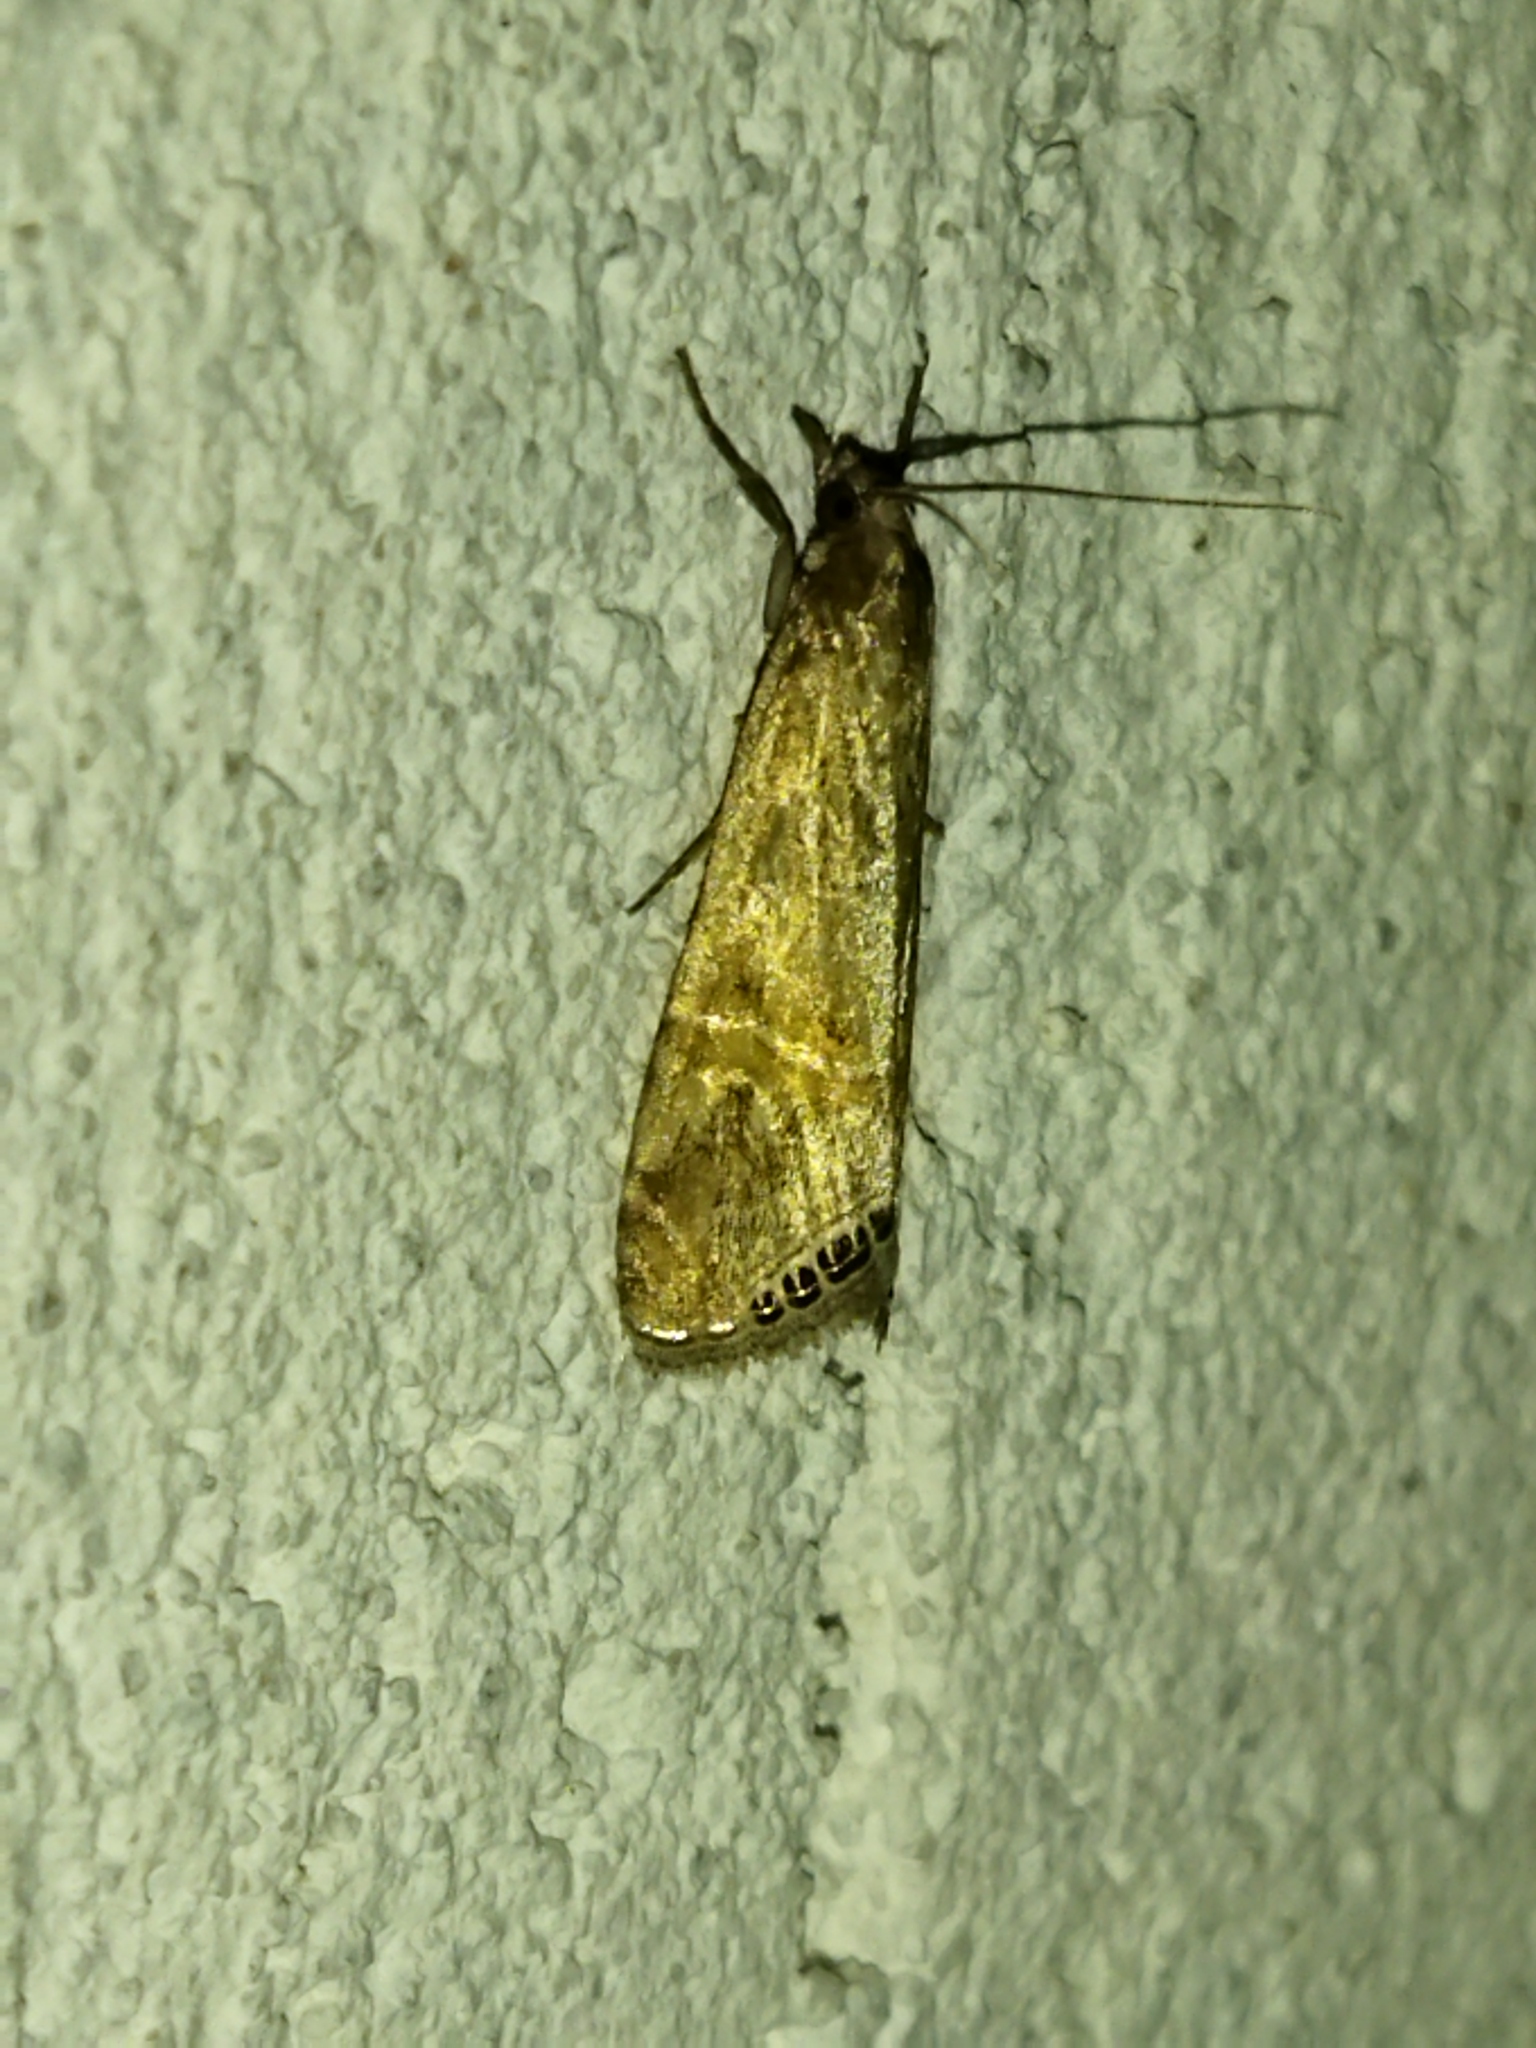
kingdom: Animalia
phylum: Arthropoda
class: Insecta
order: Lepidoptera
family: Crambidae
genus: Euchromius
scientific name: Euchromius ocellea
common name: Necklace veneer moth
